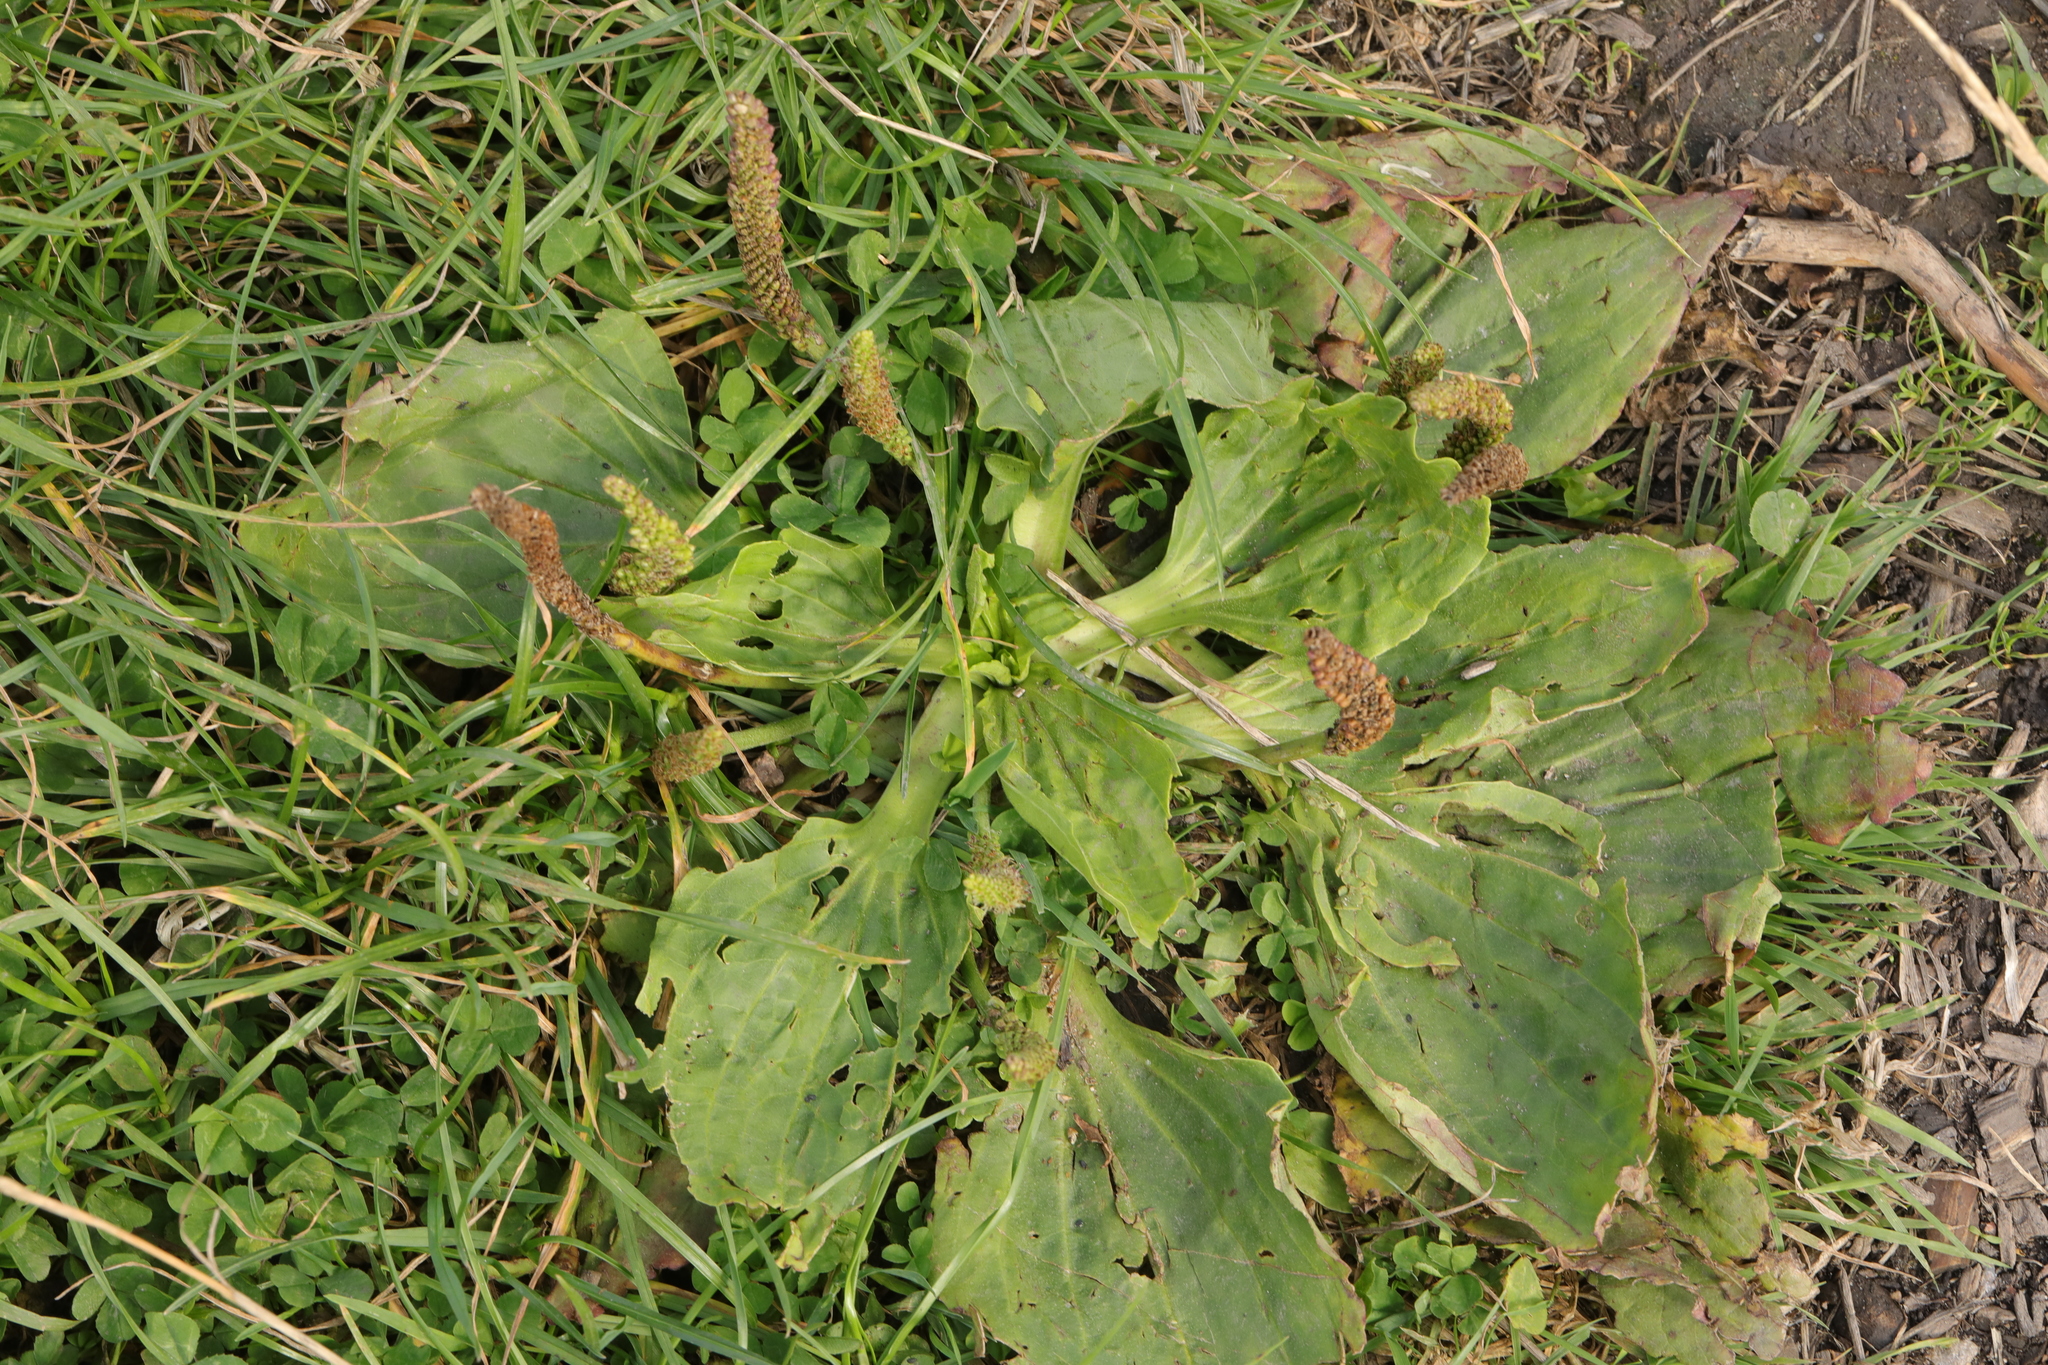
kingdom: Plantae
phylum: Tracheophyta
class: Magnoliopsida
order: Lamiales
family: Plantaginaceae
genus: Plantago
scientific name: Plantago major
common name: Common plantain
